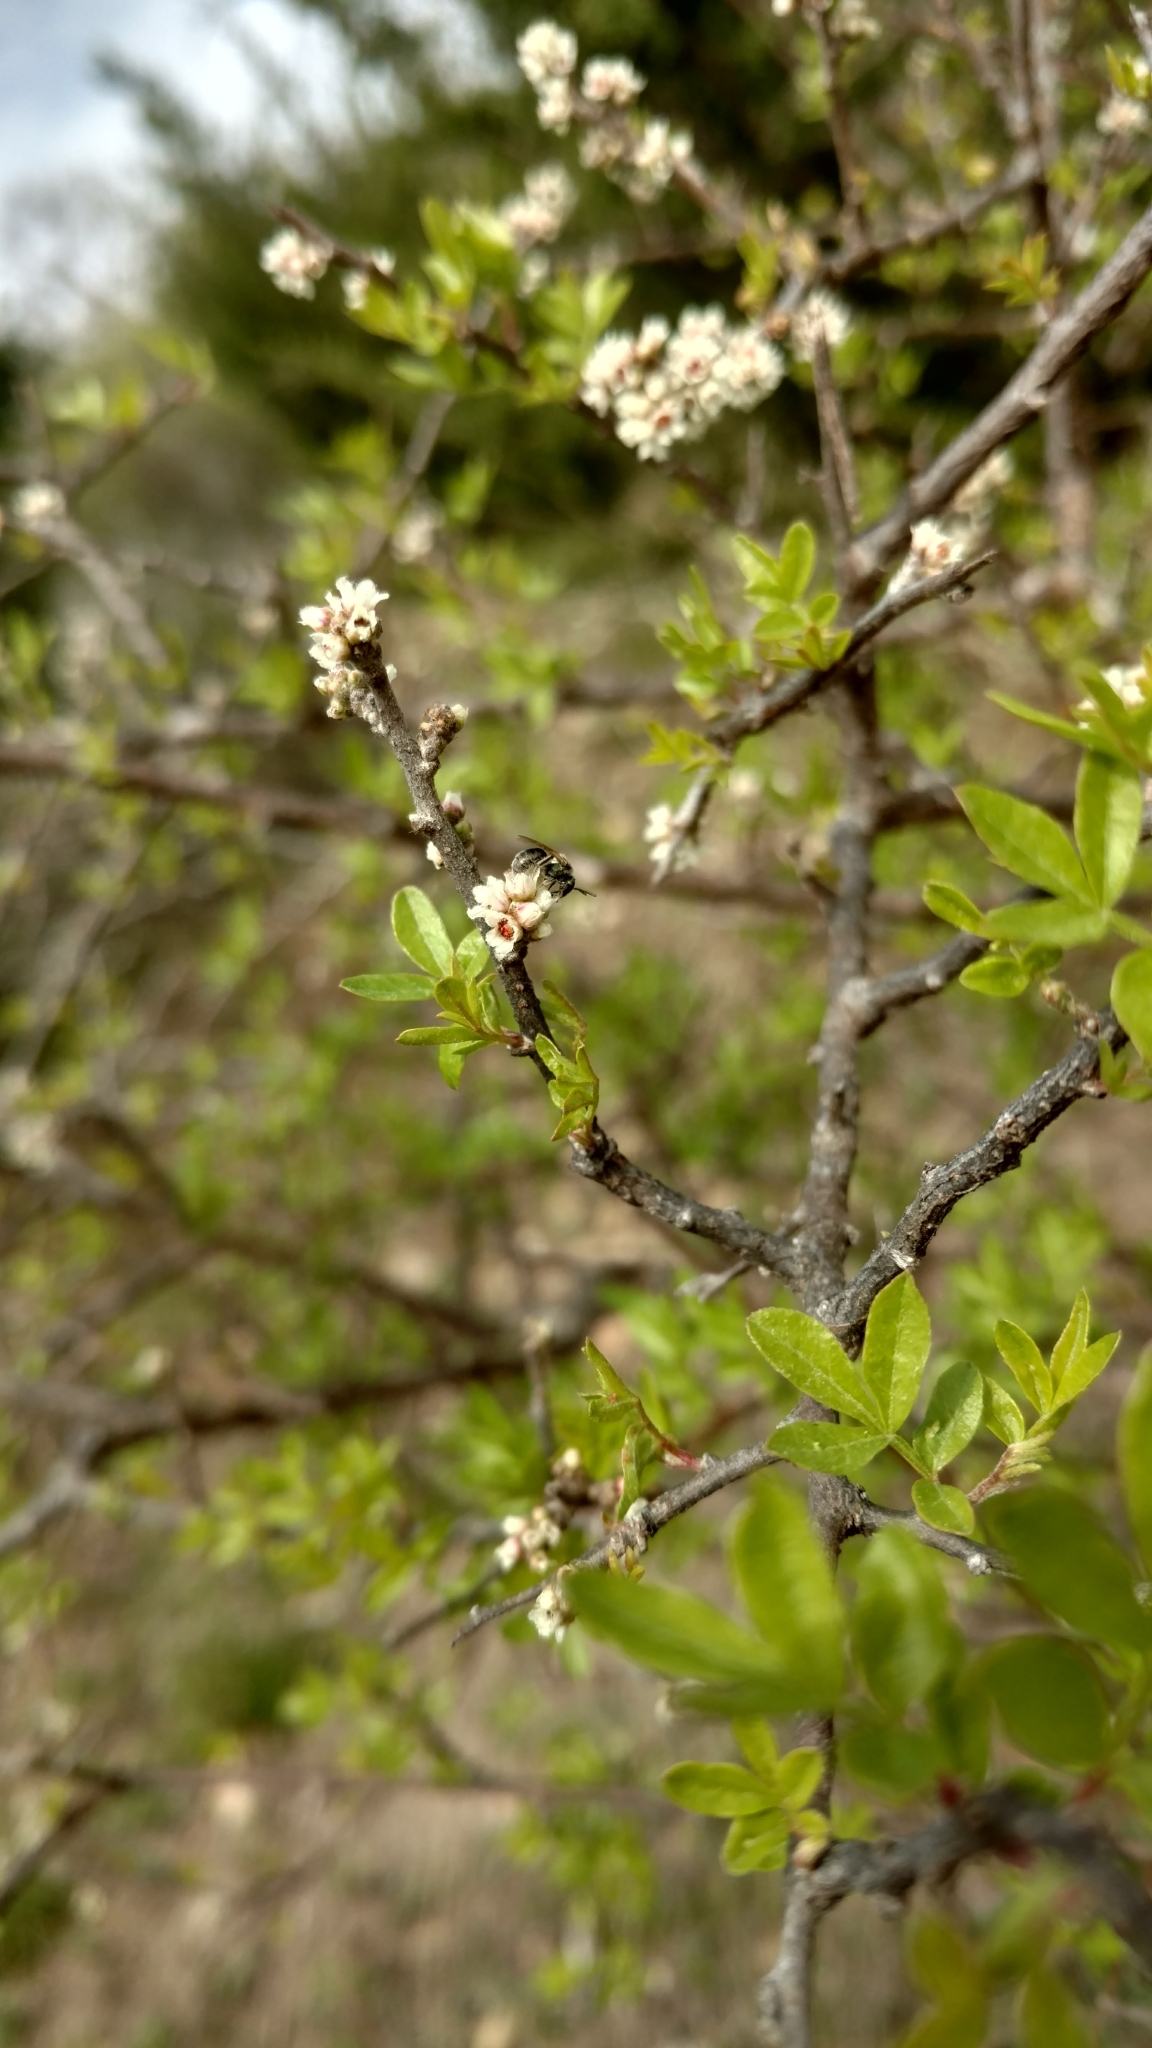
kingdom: Plantae
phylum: Tracheophyta
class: Magnoliopsida
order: Sapindales
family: Anacardiaceae
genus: Rhus
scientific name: Rhus microphylla
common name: Desert sumac
